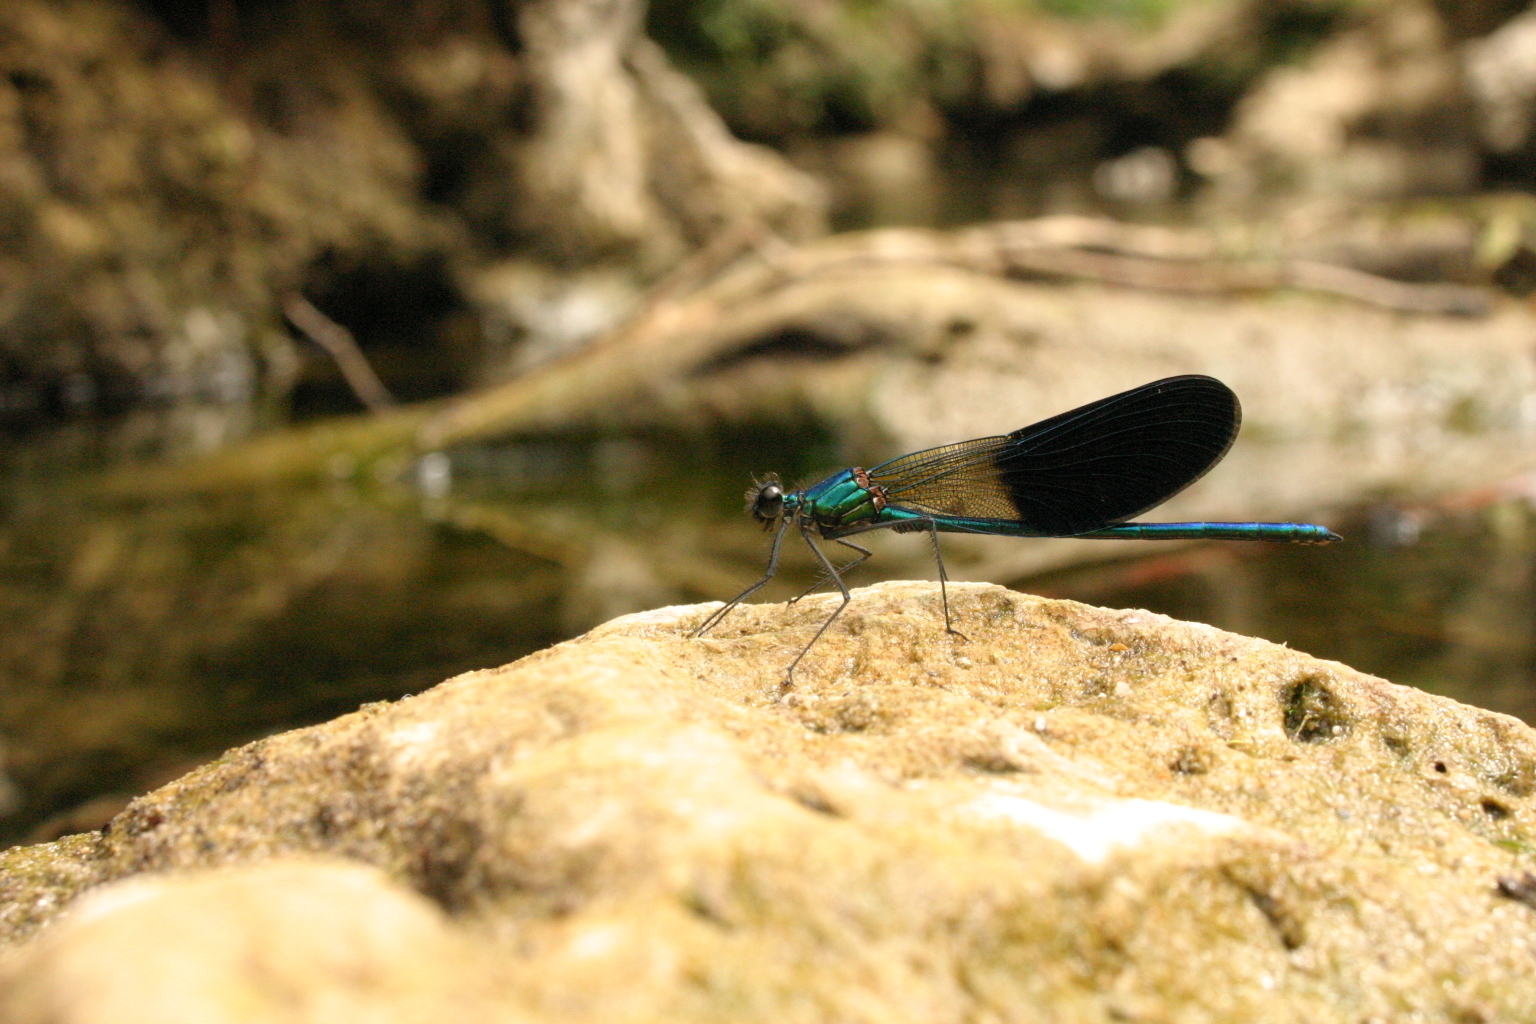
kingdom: Animalia
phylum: Arthropoda
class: Insecta
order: Odonata
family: Calopterygidae
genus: Calopteryx
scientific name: Calopteryx xanthostoma
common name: Western demoiselle
